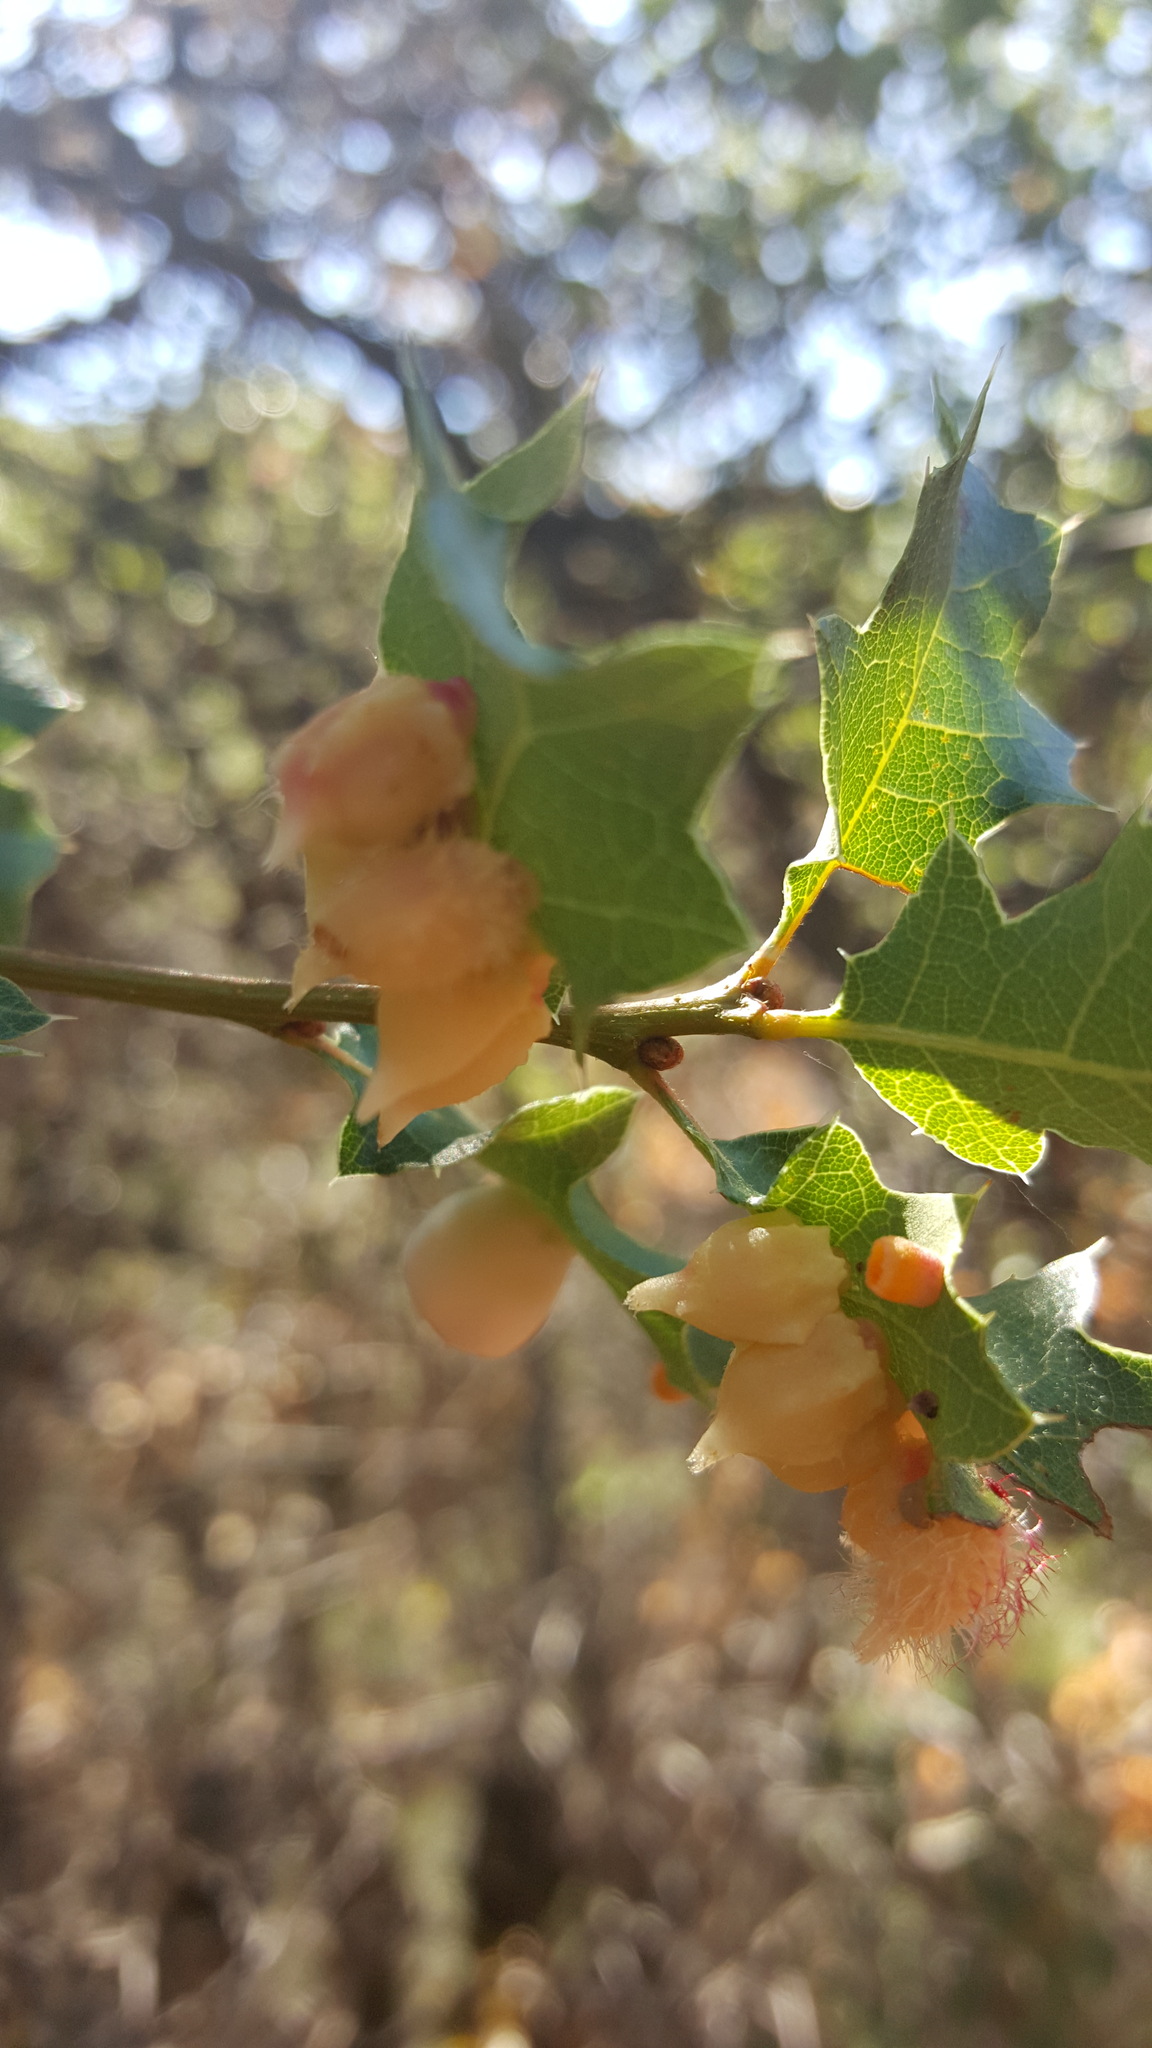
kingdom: Animalia
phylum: Arthropoda
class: Insecta
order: Hymenoptera
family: Cynipidae
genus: Andricus
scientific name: Andricus
